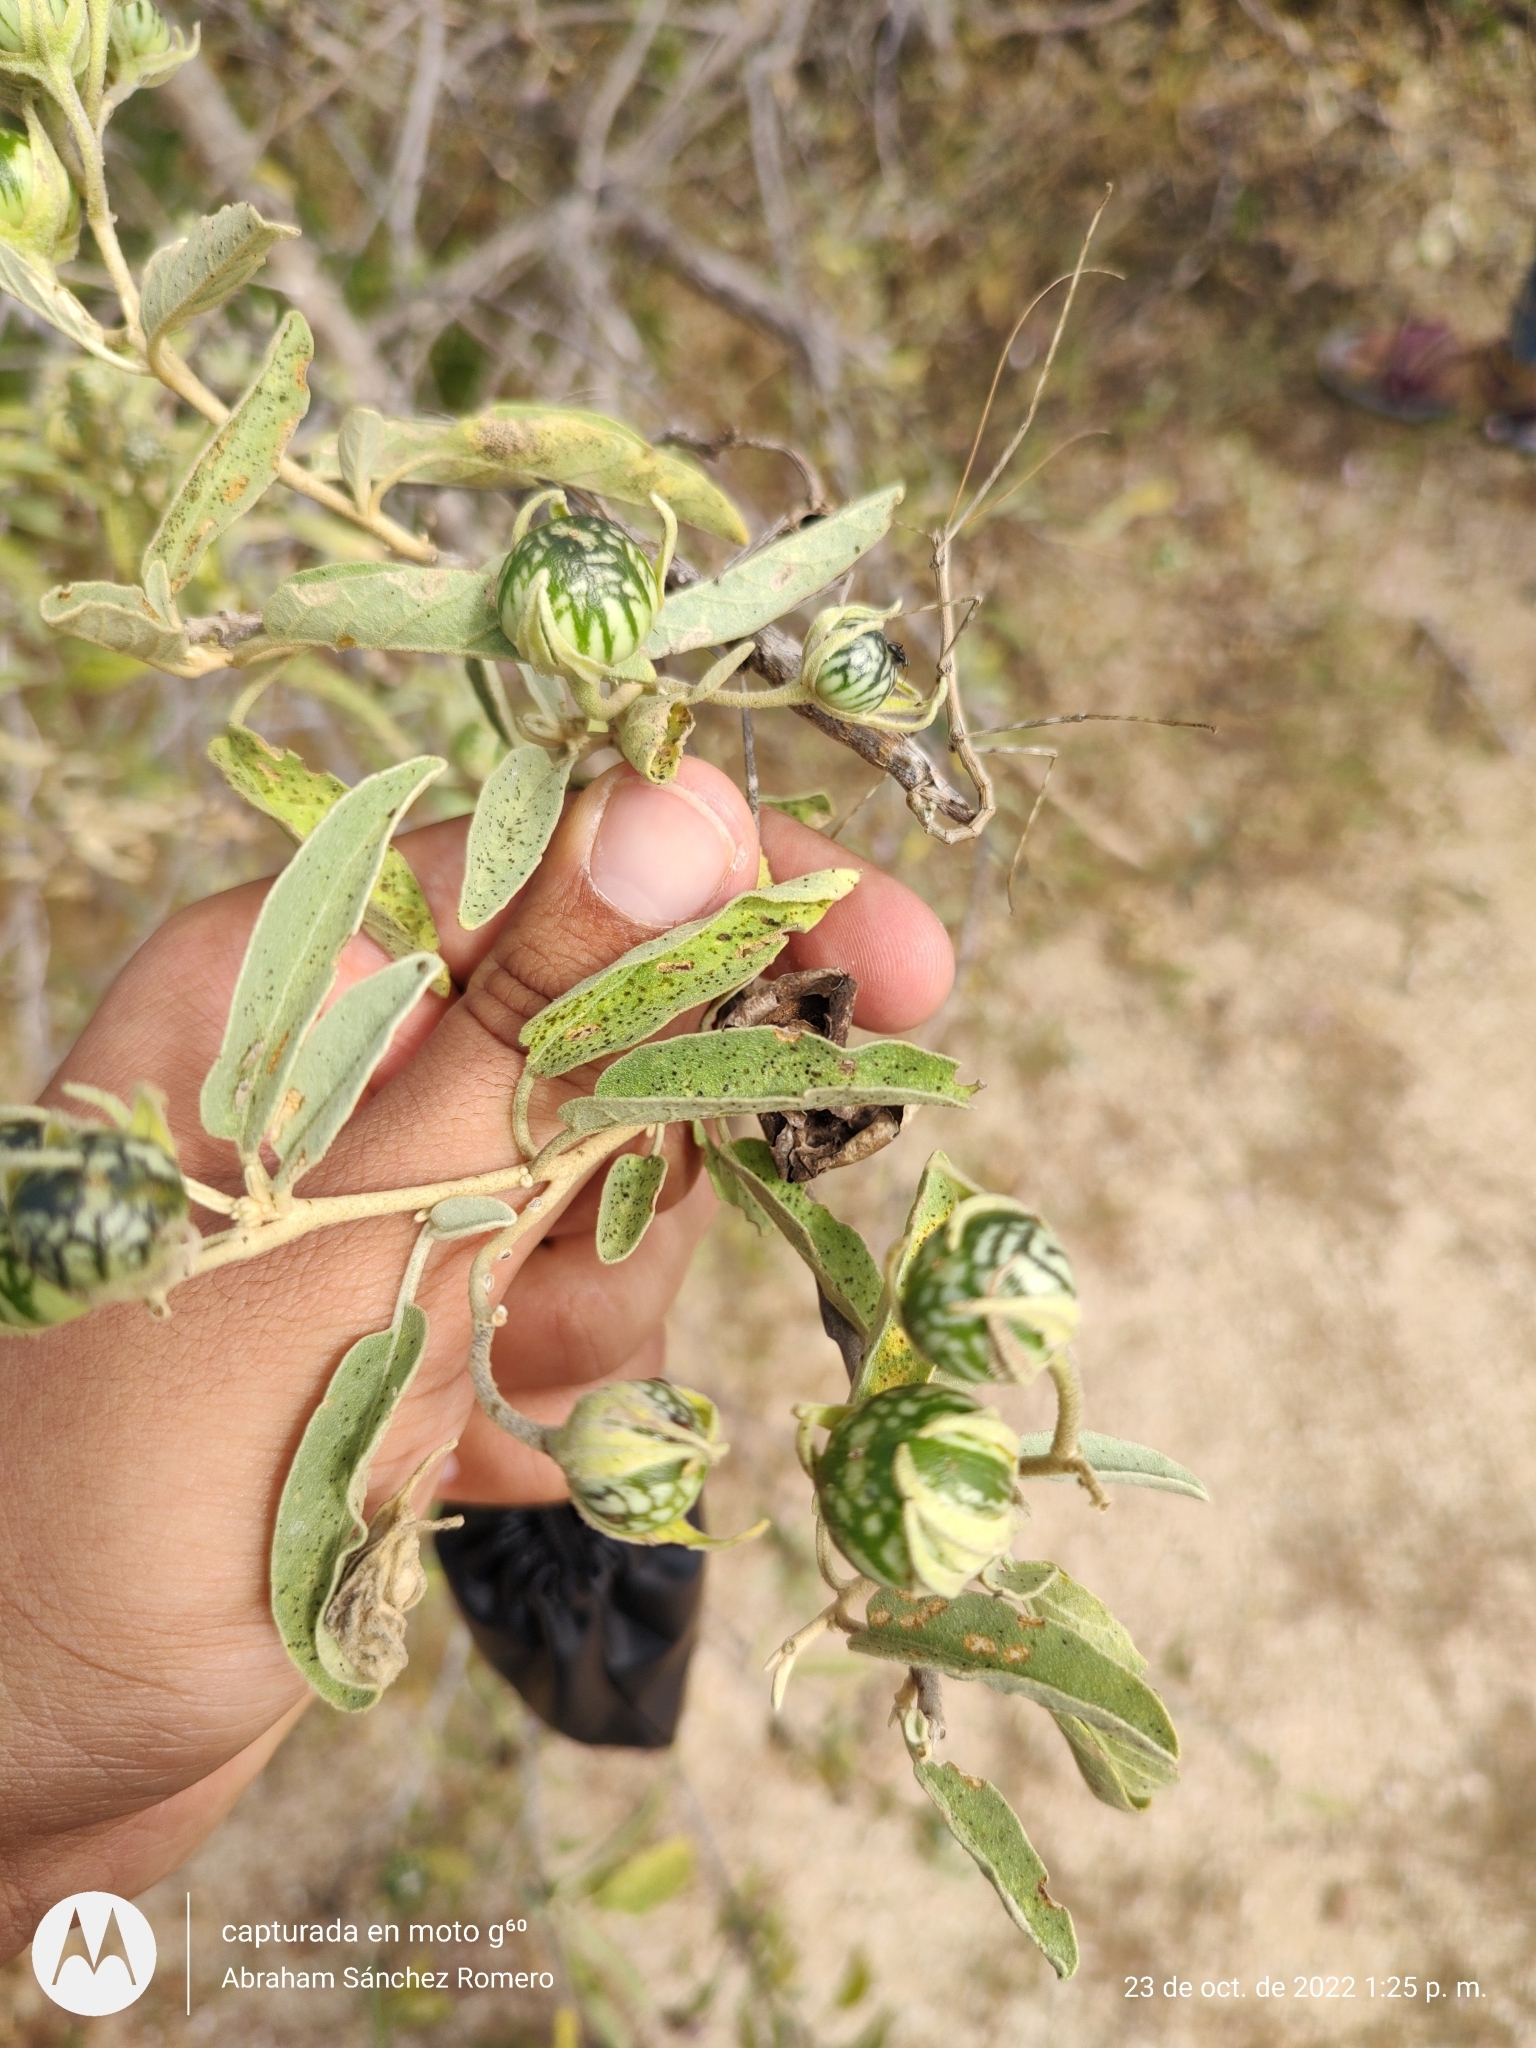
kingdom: Plantae
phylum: Tracheophyta
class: Magnoliopsida
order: Solanales
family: Solanaceae
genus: Solanum
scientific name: Solanum hindsianum
